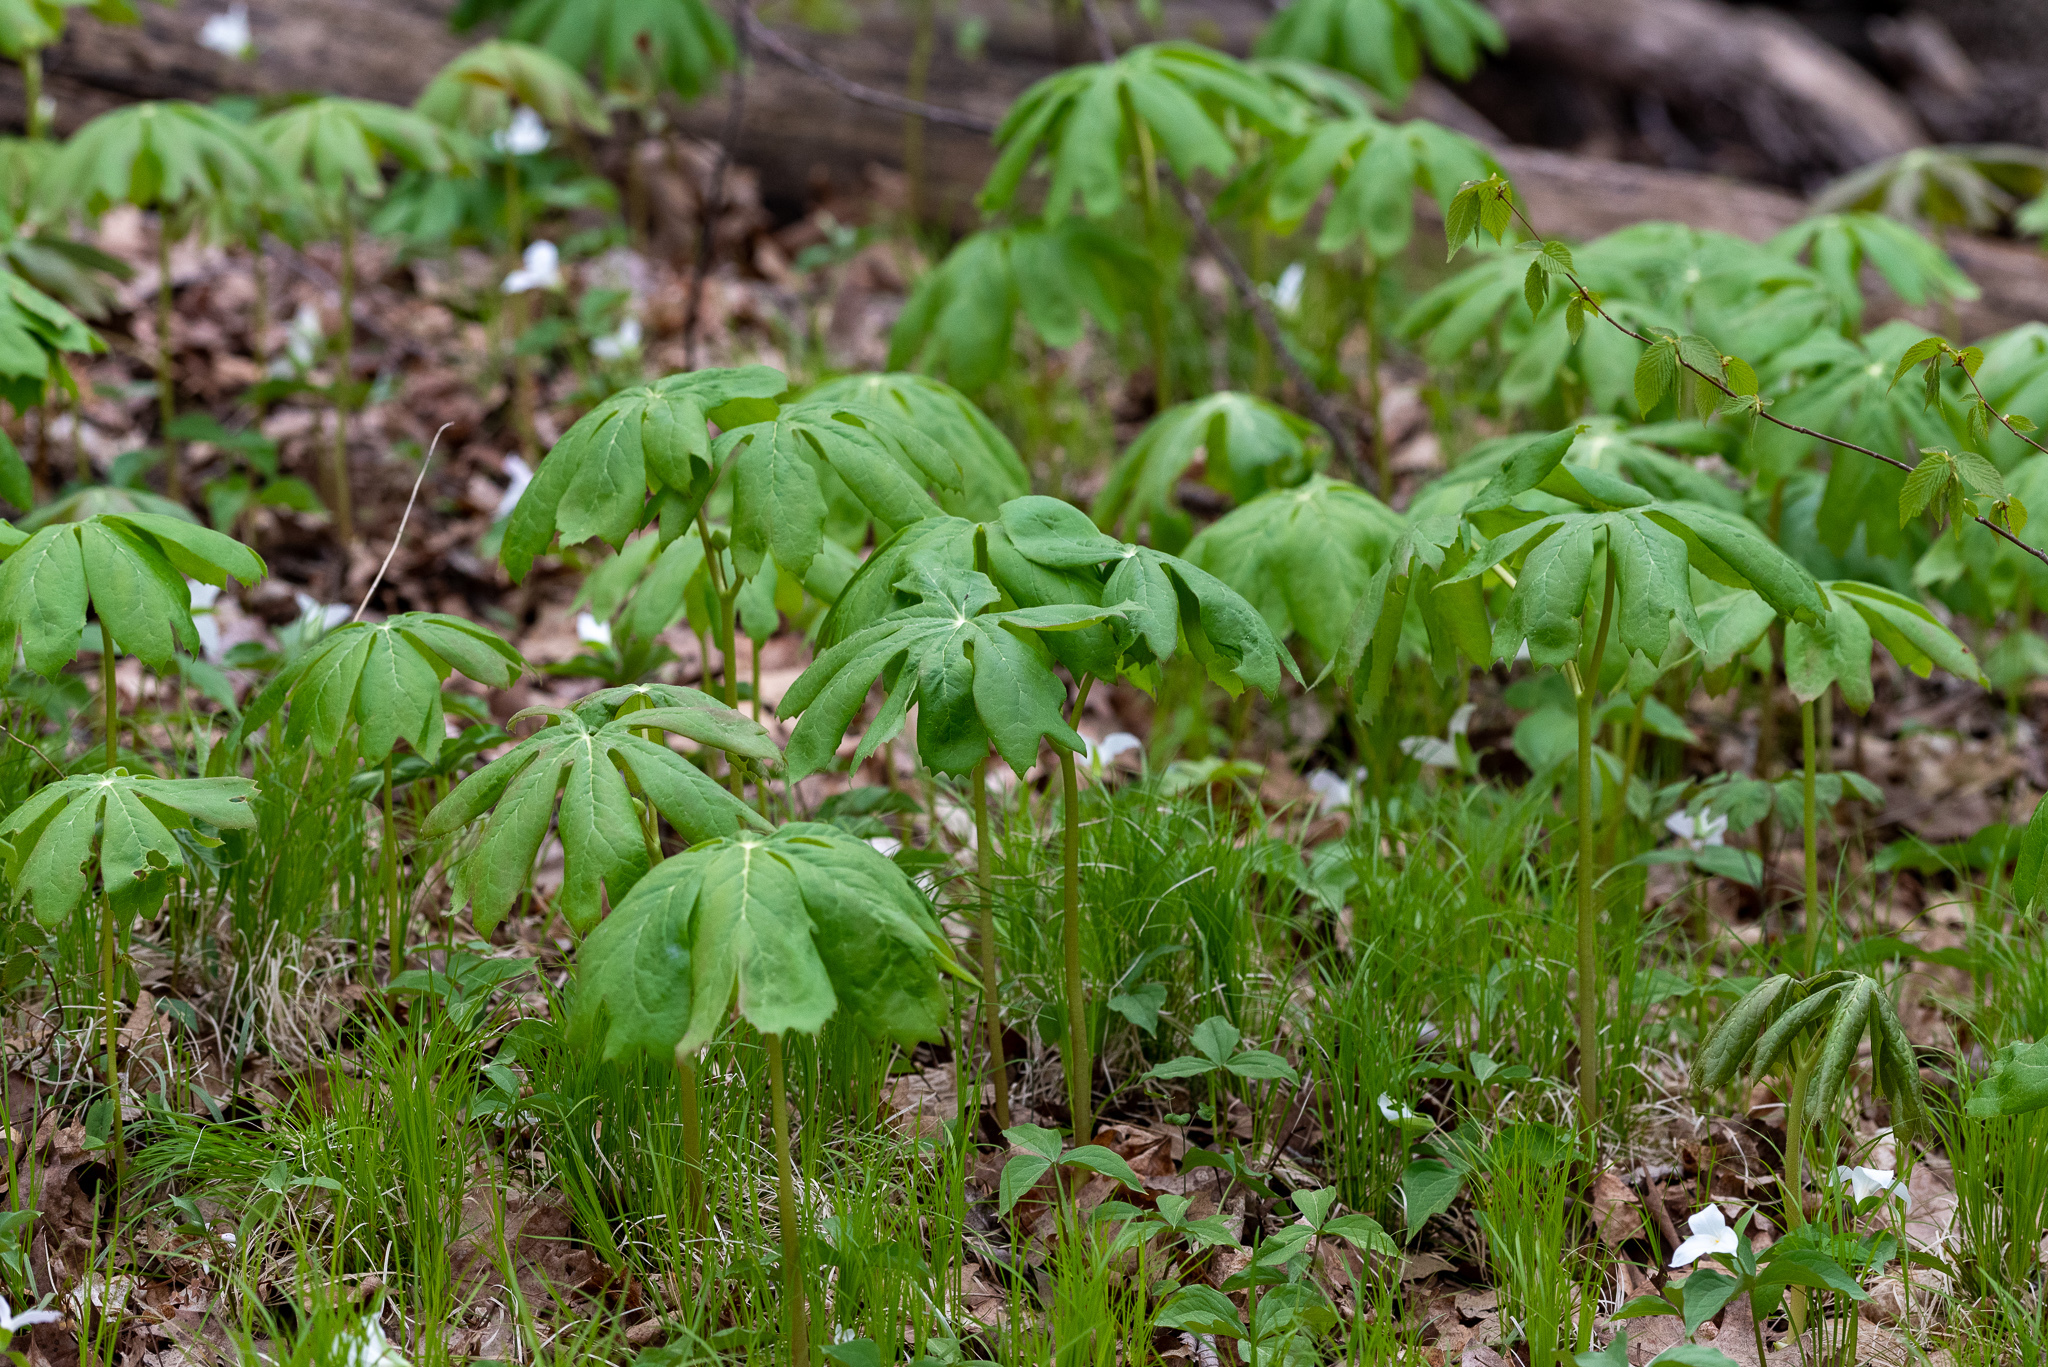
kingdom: Plantae
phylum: Tracheophyta
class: Magnoliopsida
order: Ranunculales
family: Berberidaceae
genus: Podophyllum
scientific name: Podophyllum peltatum
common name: Wild mandrake
